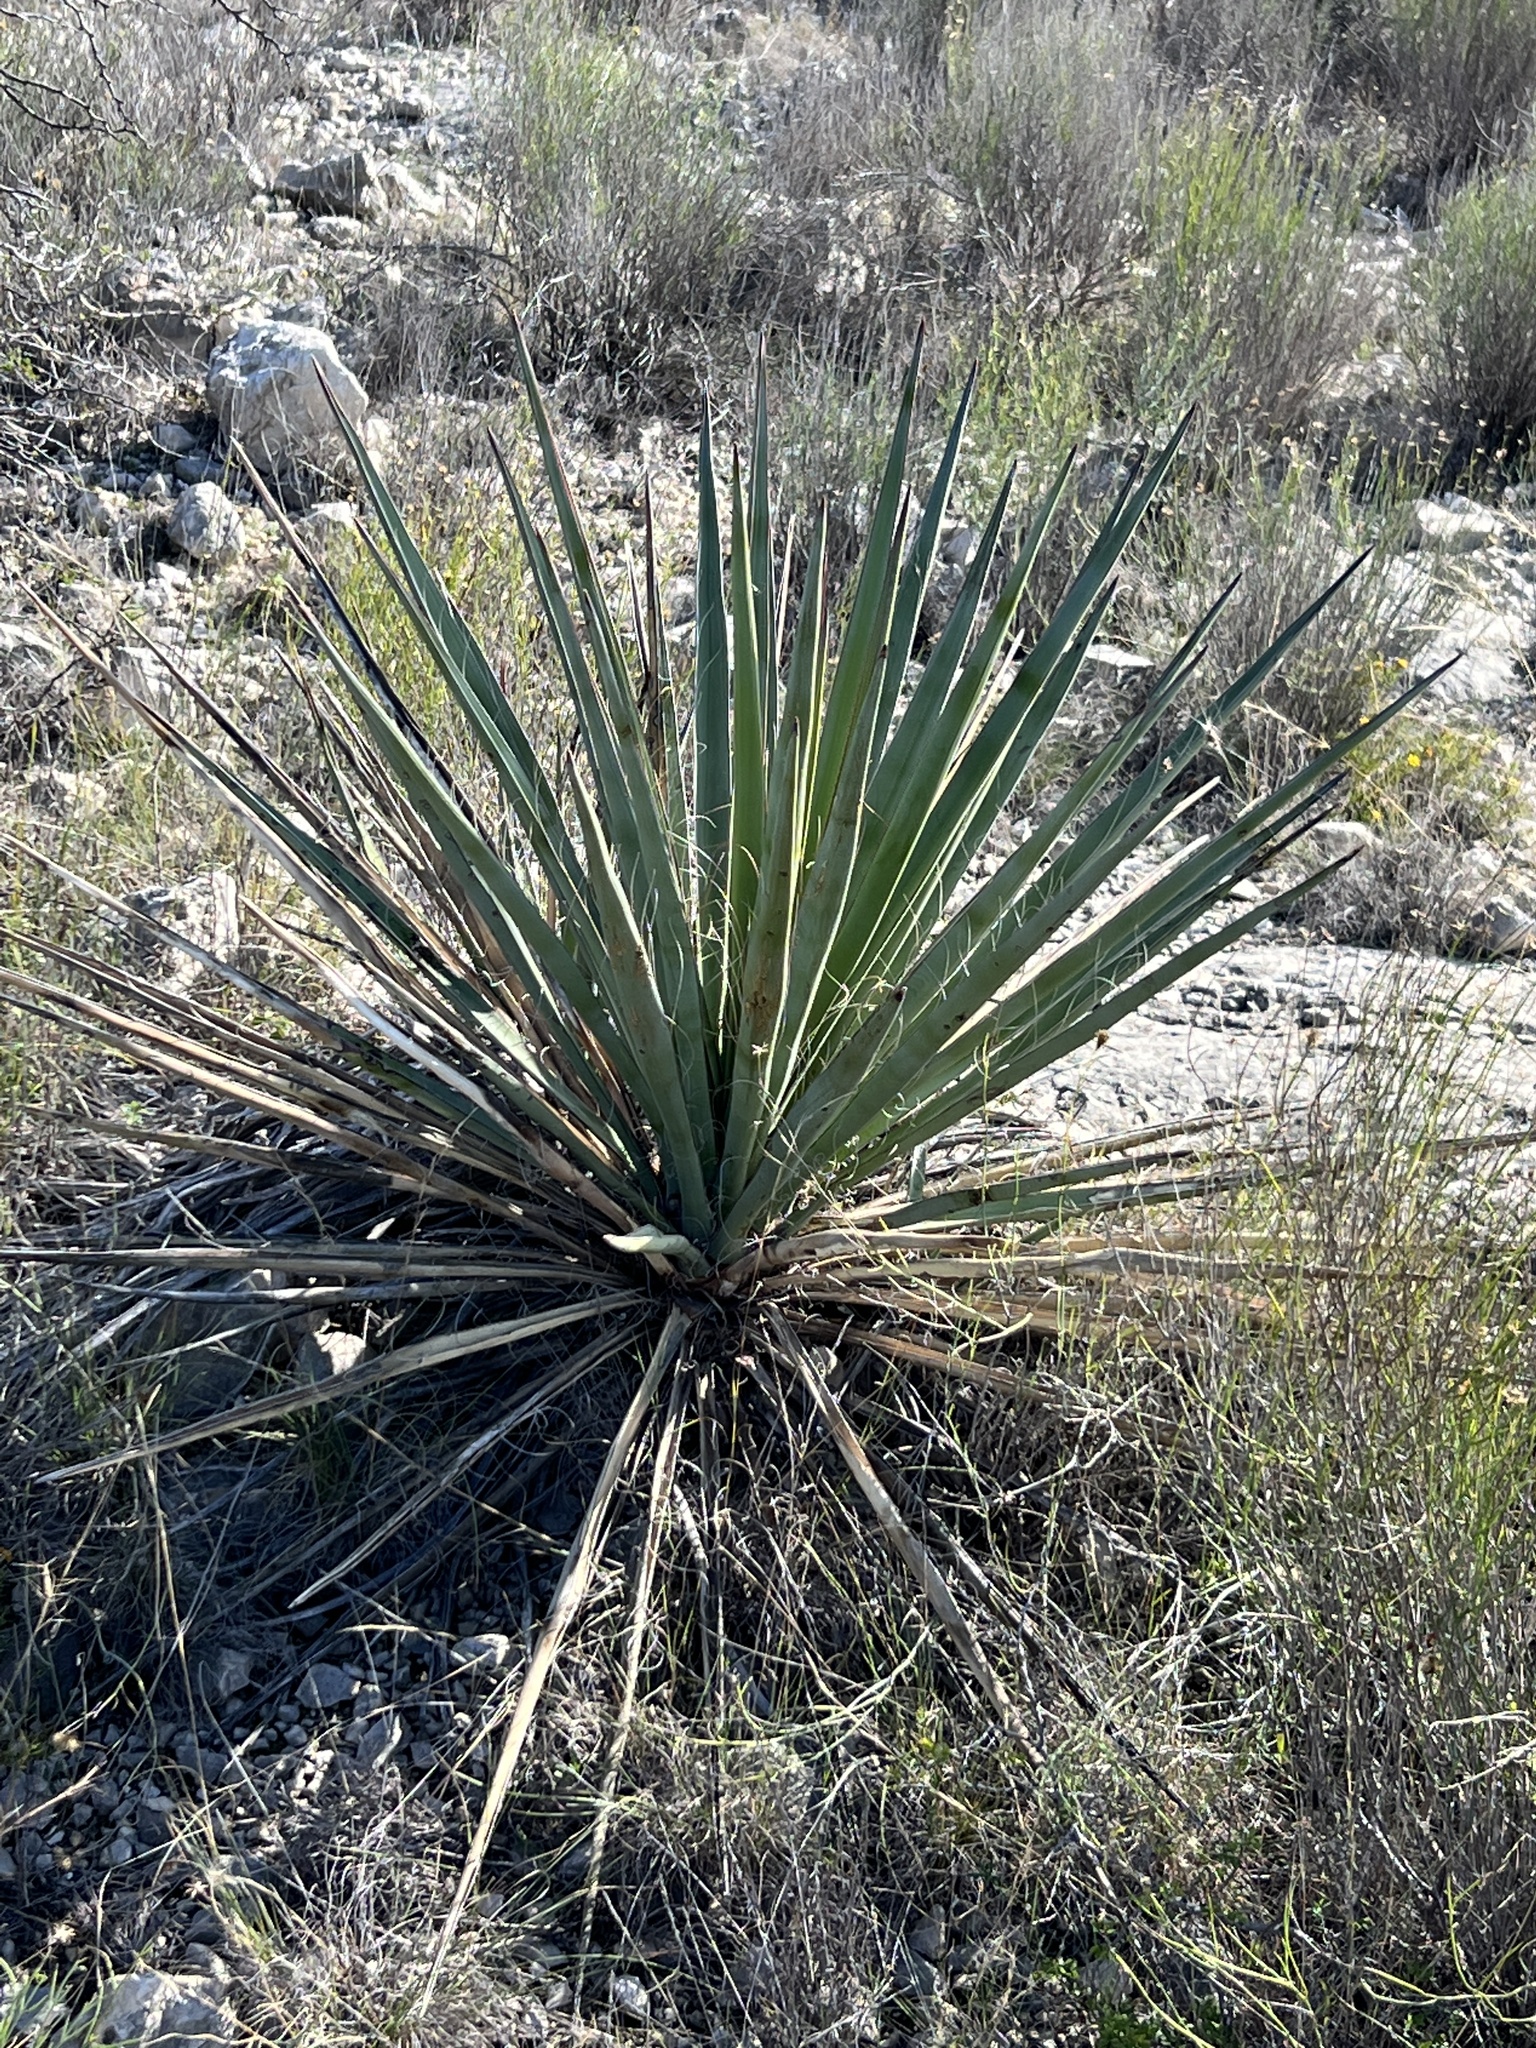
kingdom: Plantae
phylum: Tracheophyta
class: Liliopsida
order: Asparagales
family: Asparagaceae
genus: Yucca
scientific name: Yucca treculiana
